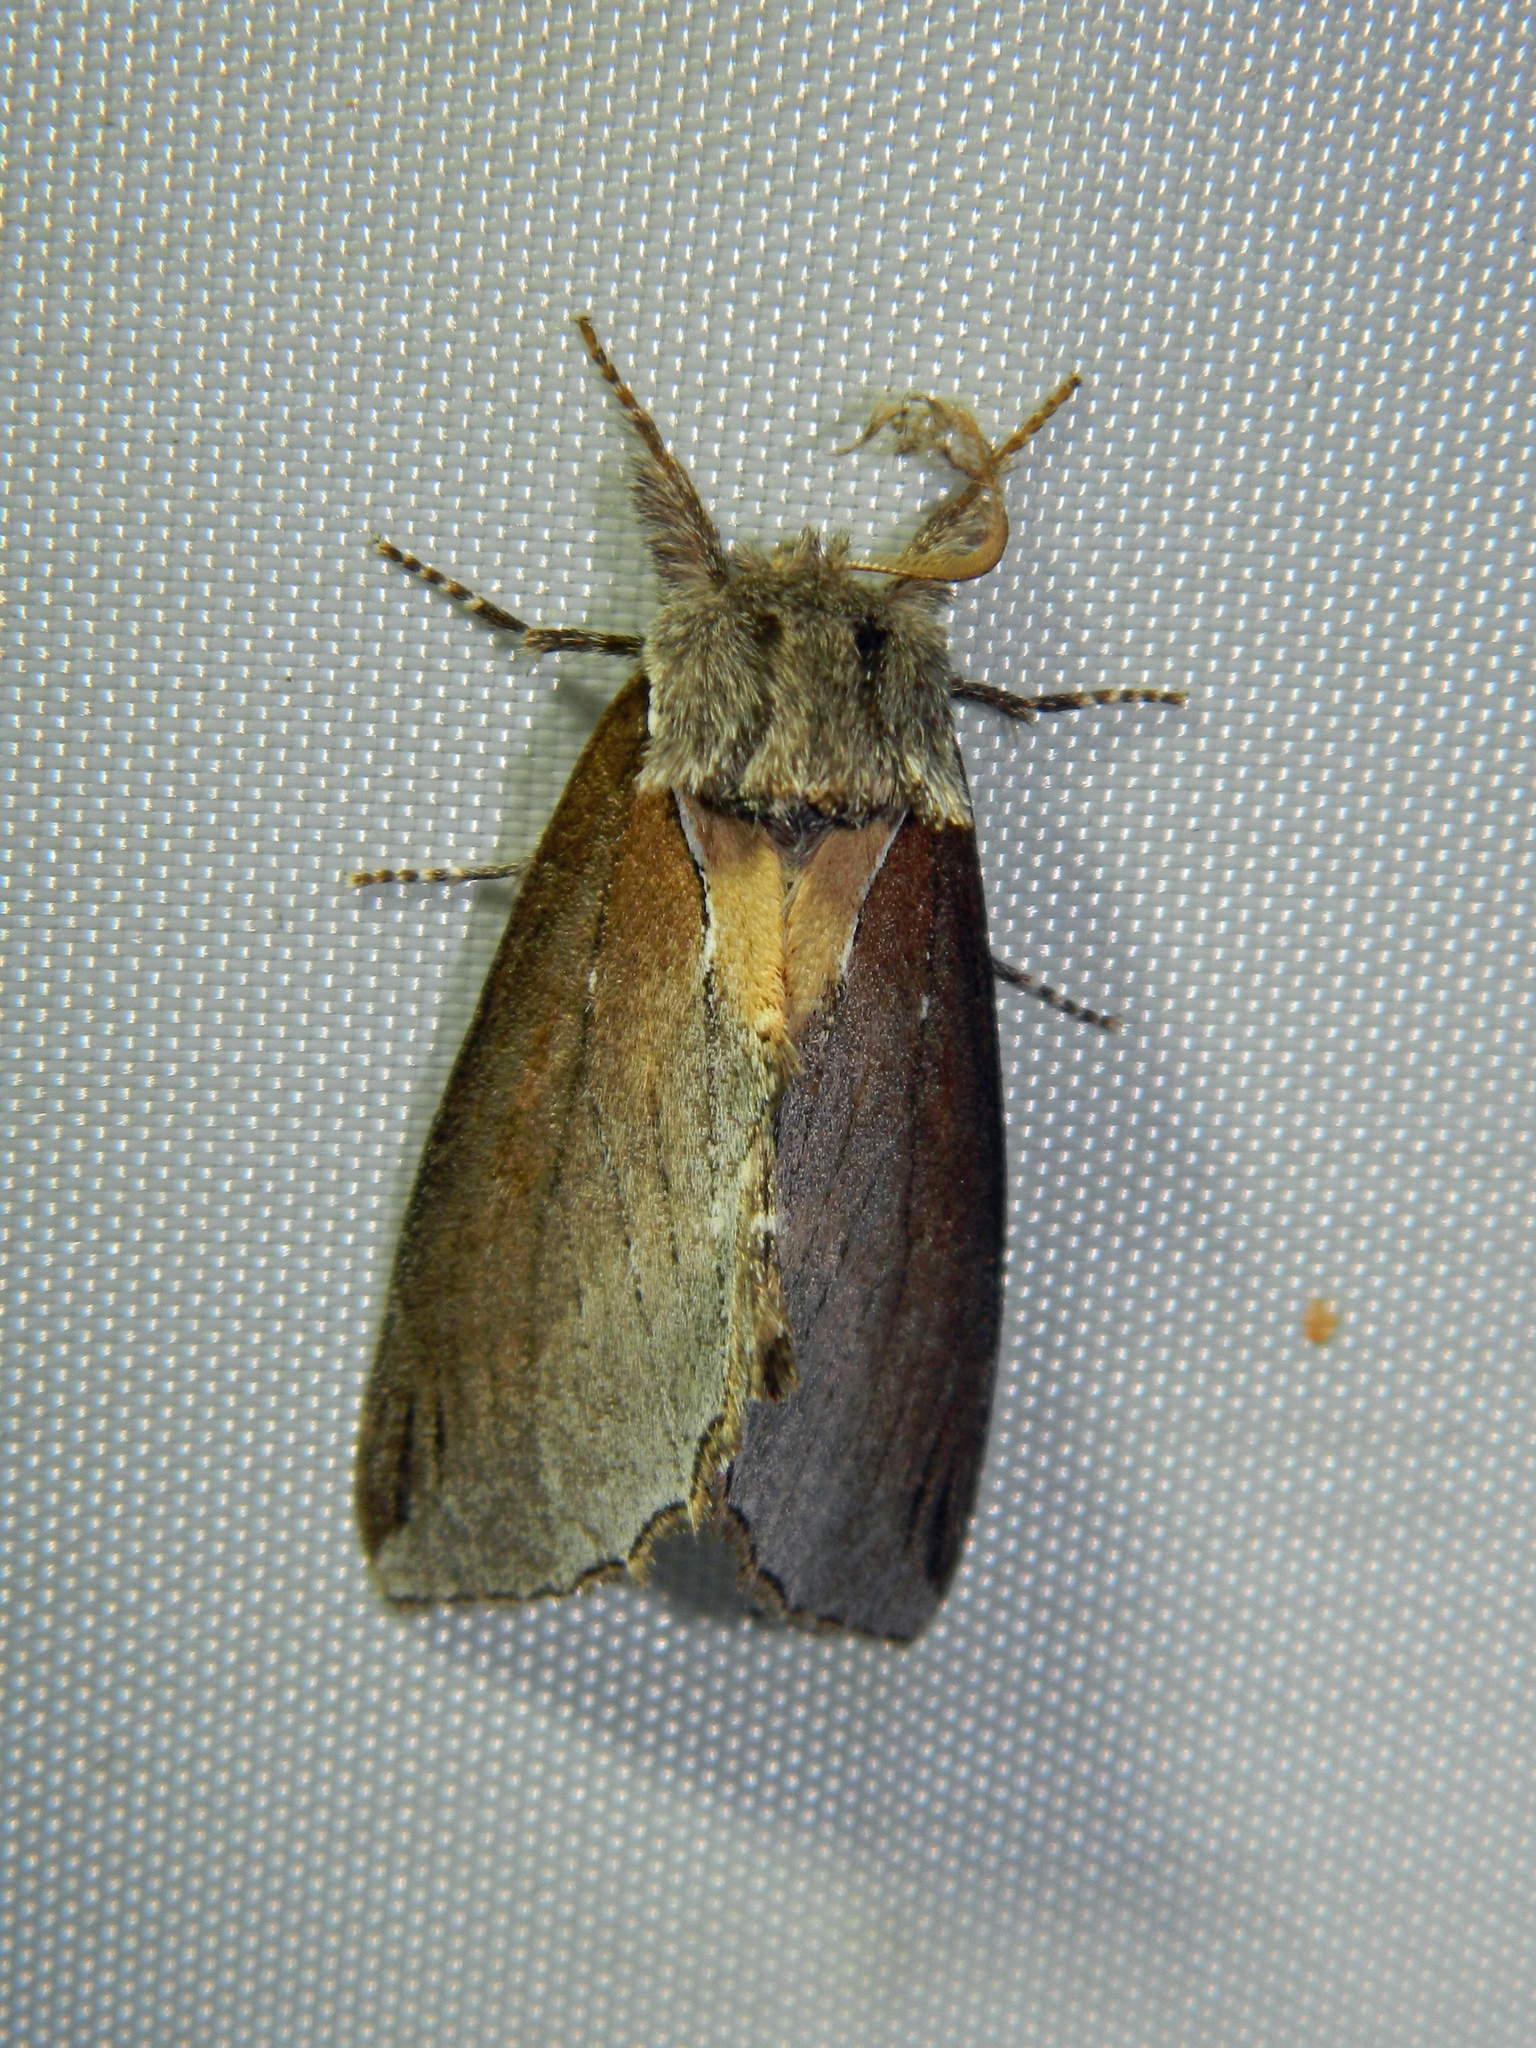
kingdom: Animalia
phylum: Arthropoda
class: Insecta
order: Lepidoptera
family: Notodontidae
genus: Pheosidea
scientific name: Pheosidea elegans
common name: Elegant prominent
